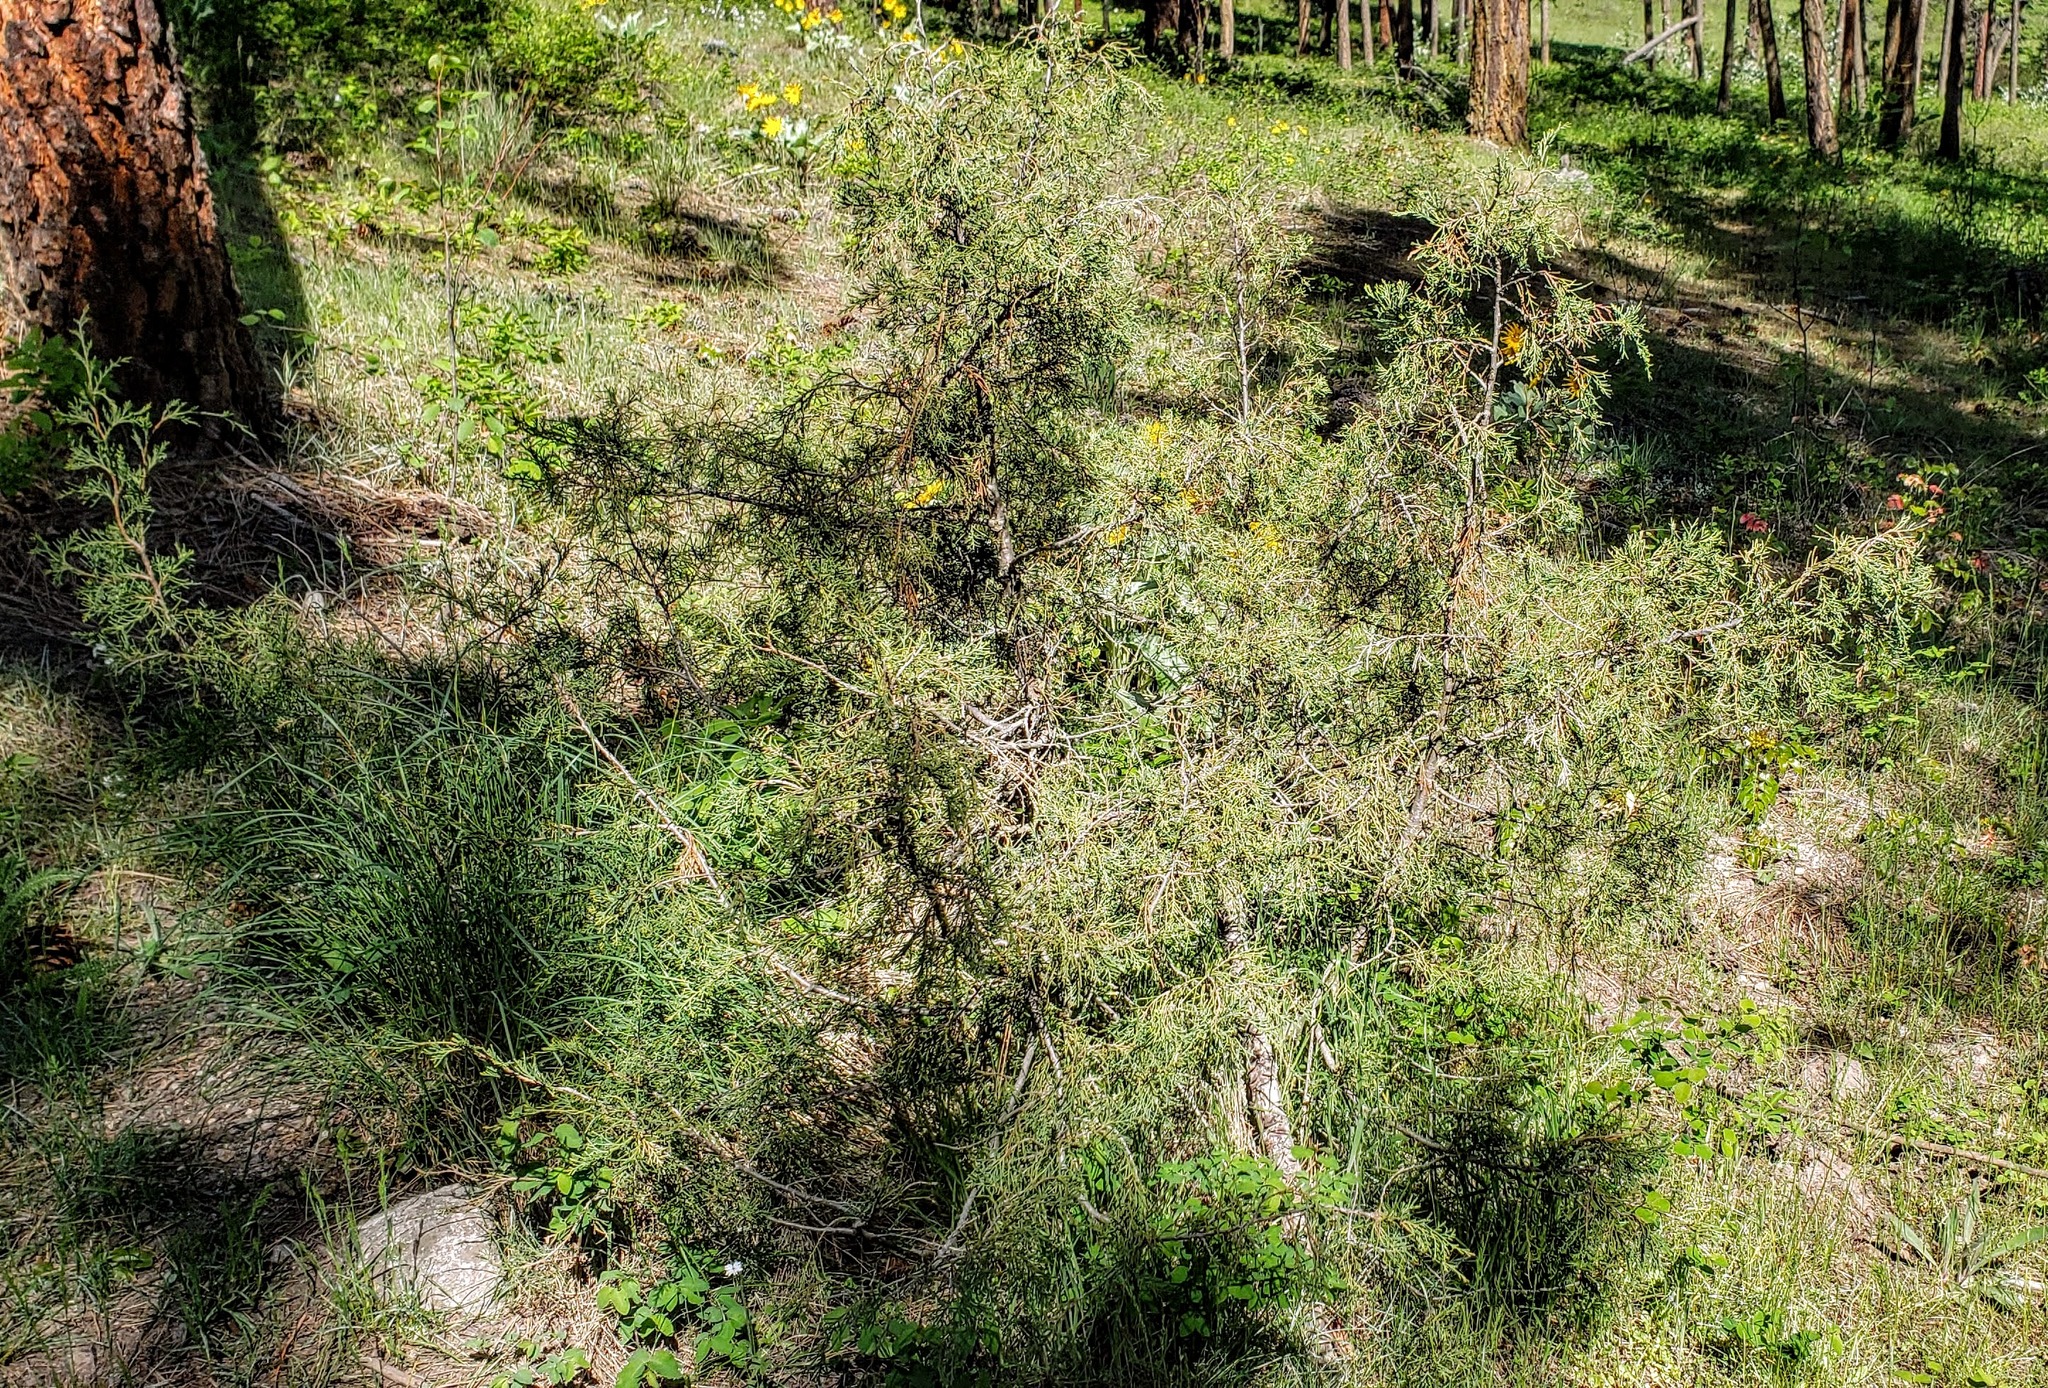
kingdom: Plantae
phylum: Tracheophyta
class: Pinopsida
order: Pinales
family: Cupressaceae
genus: Juniperus
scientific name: Juniperus scopulorum
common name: Rocky mountain juniper
